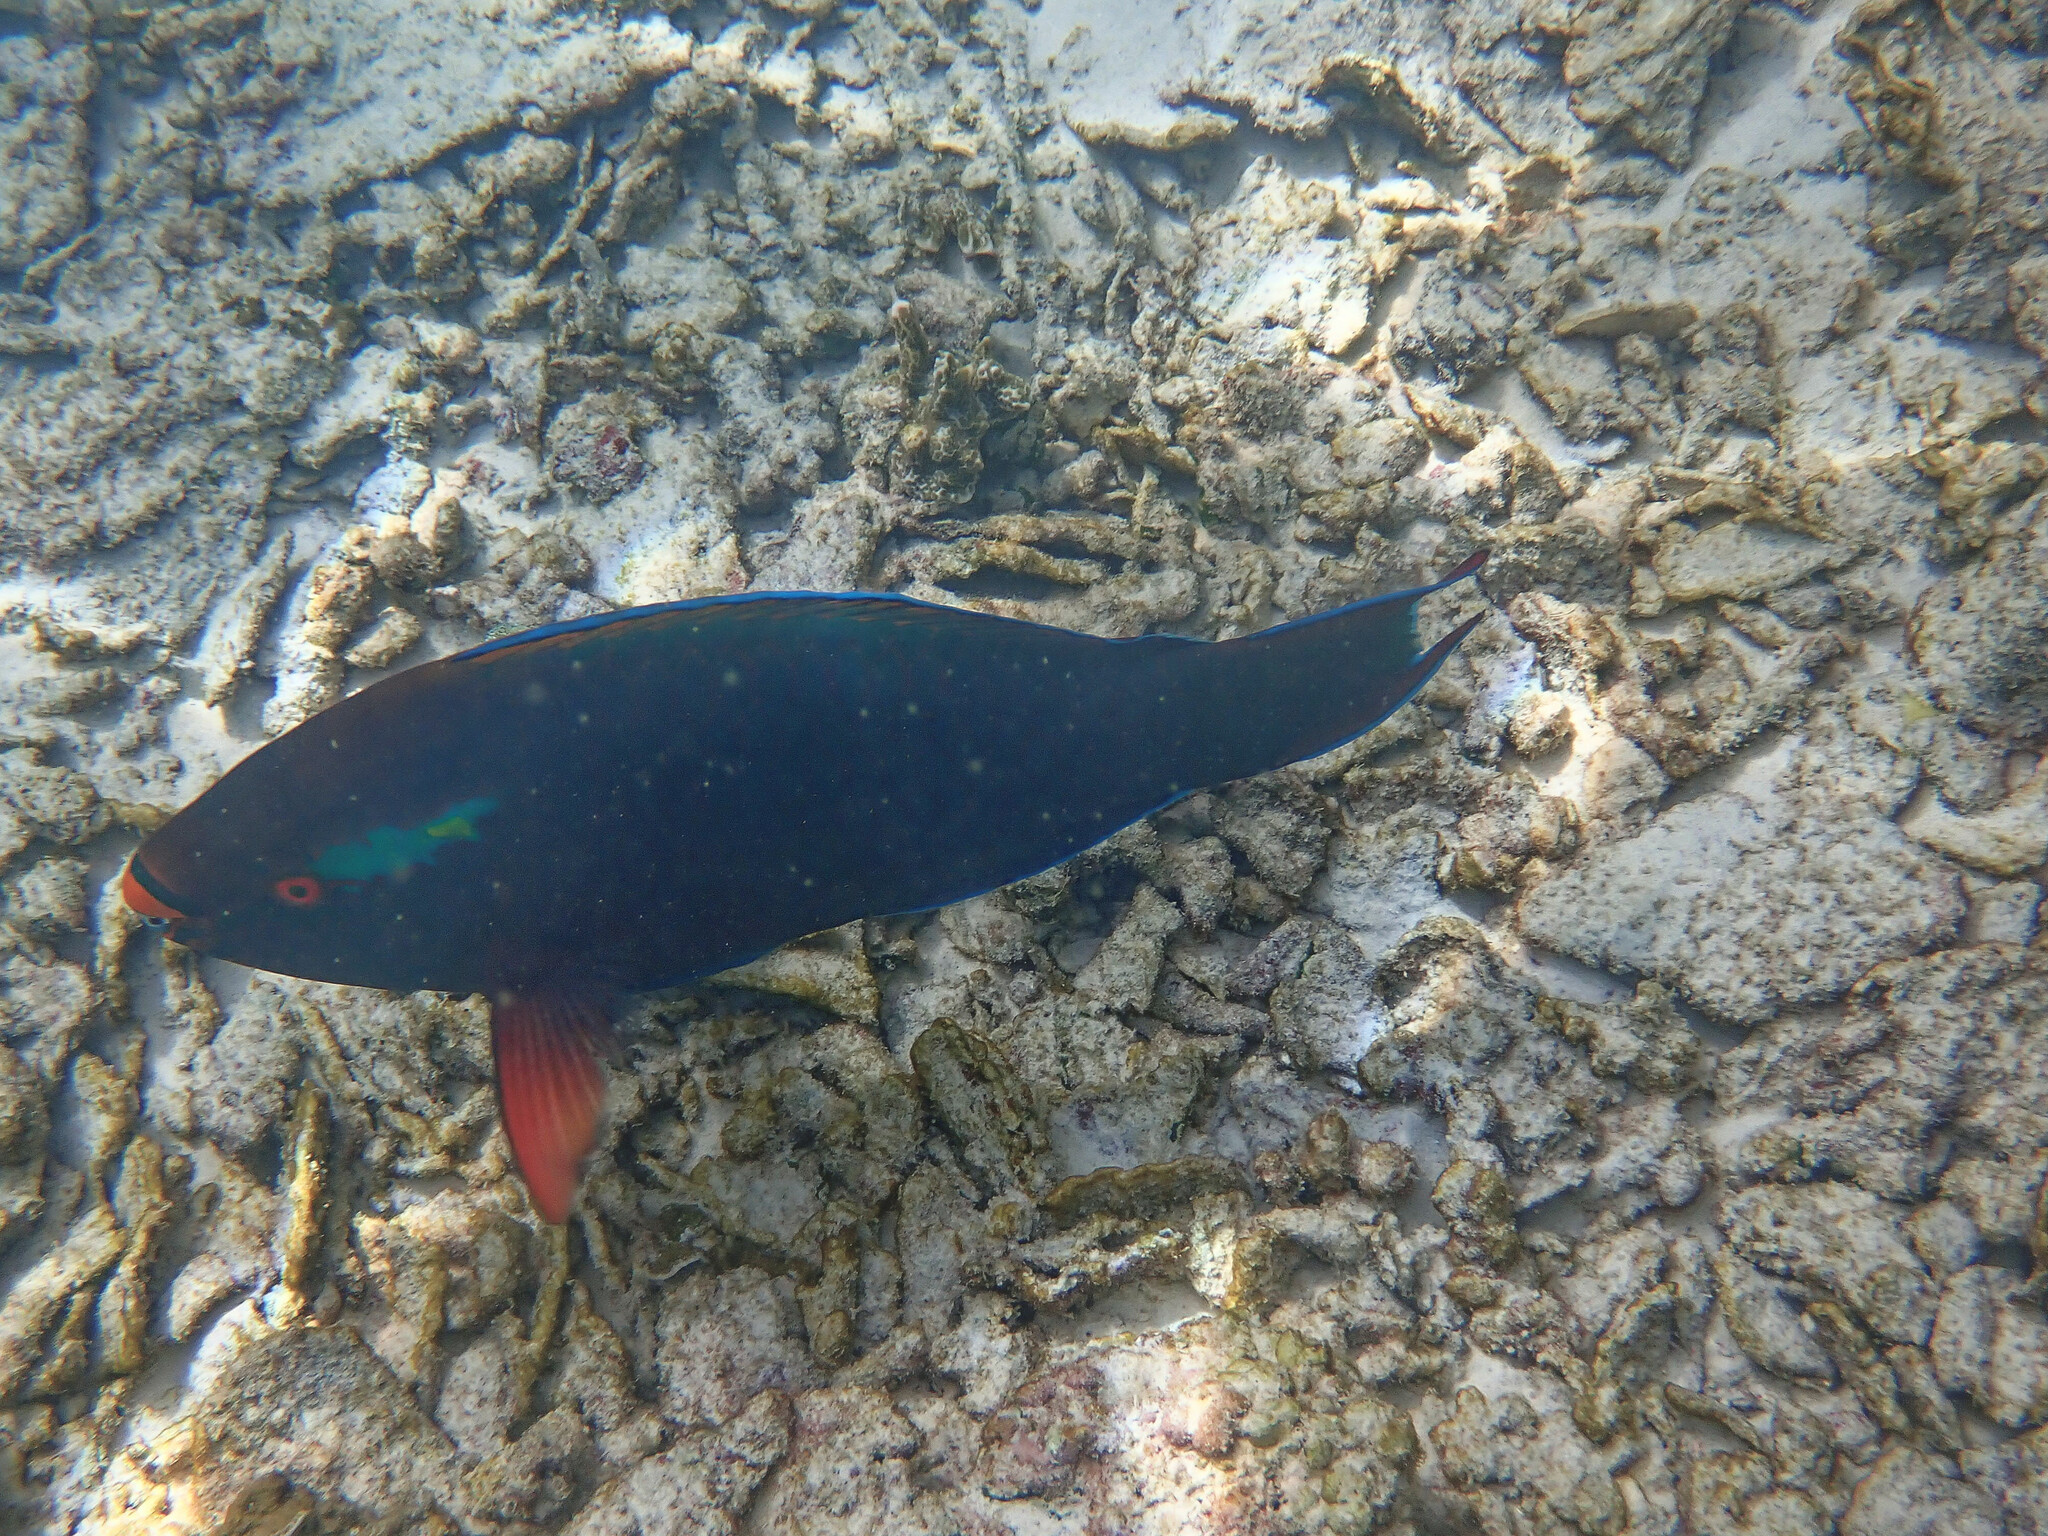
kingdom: Animalia
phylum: Chordata
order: Perciformes
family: Scaridae
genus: Scarus
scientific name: Scarus niger
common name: Dusky parrotfish
